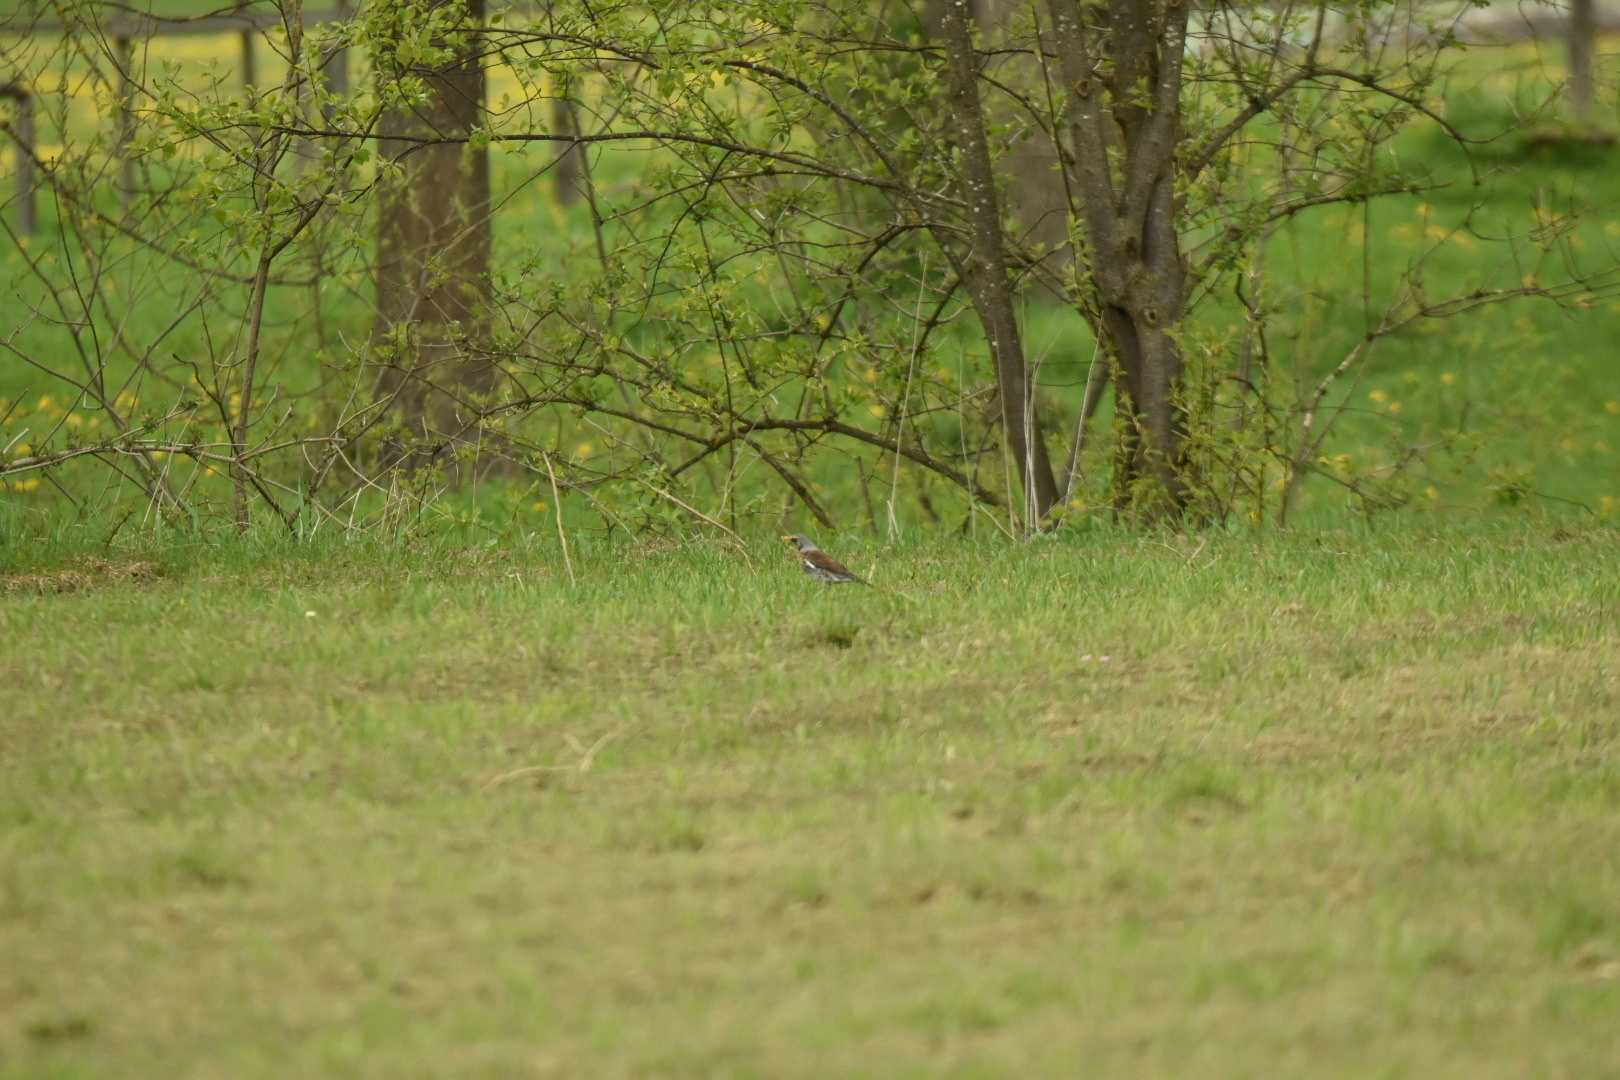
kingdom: Animalia
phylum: Chordata
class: Aves
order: Passeriformes
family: Turdidae
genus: Turdus
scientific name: Turdus pilaris
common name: Fieldfare
